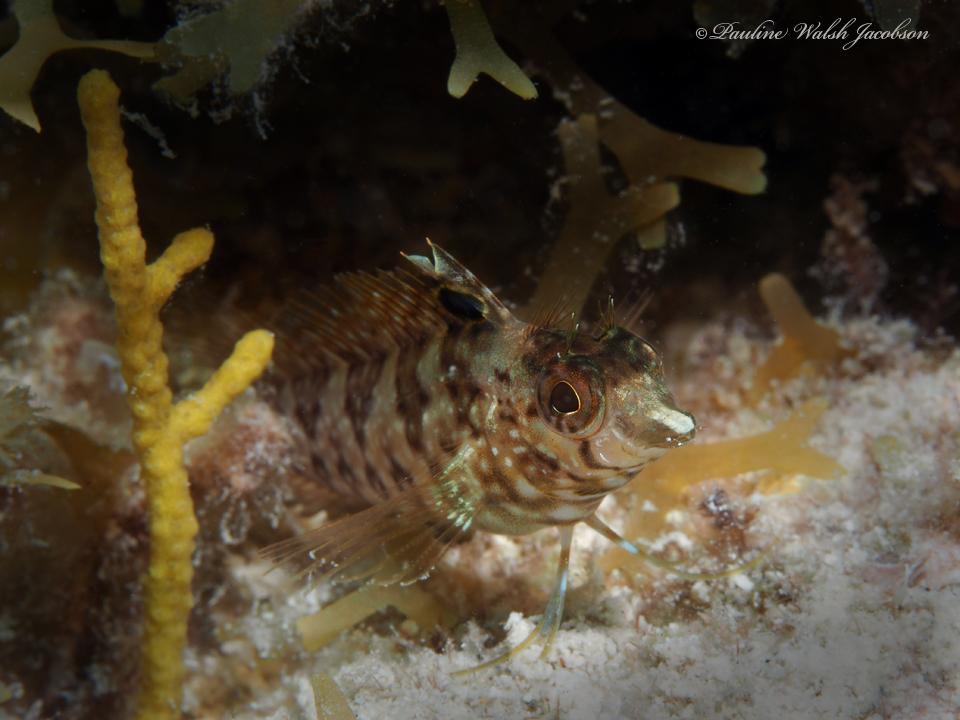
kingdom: Animalia
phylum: Chordata
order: Perciformes
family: Labrisomidae
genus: Malacoctenus
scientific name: Malacoctenus boehlkei
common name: Diamond blenny
